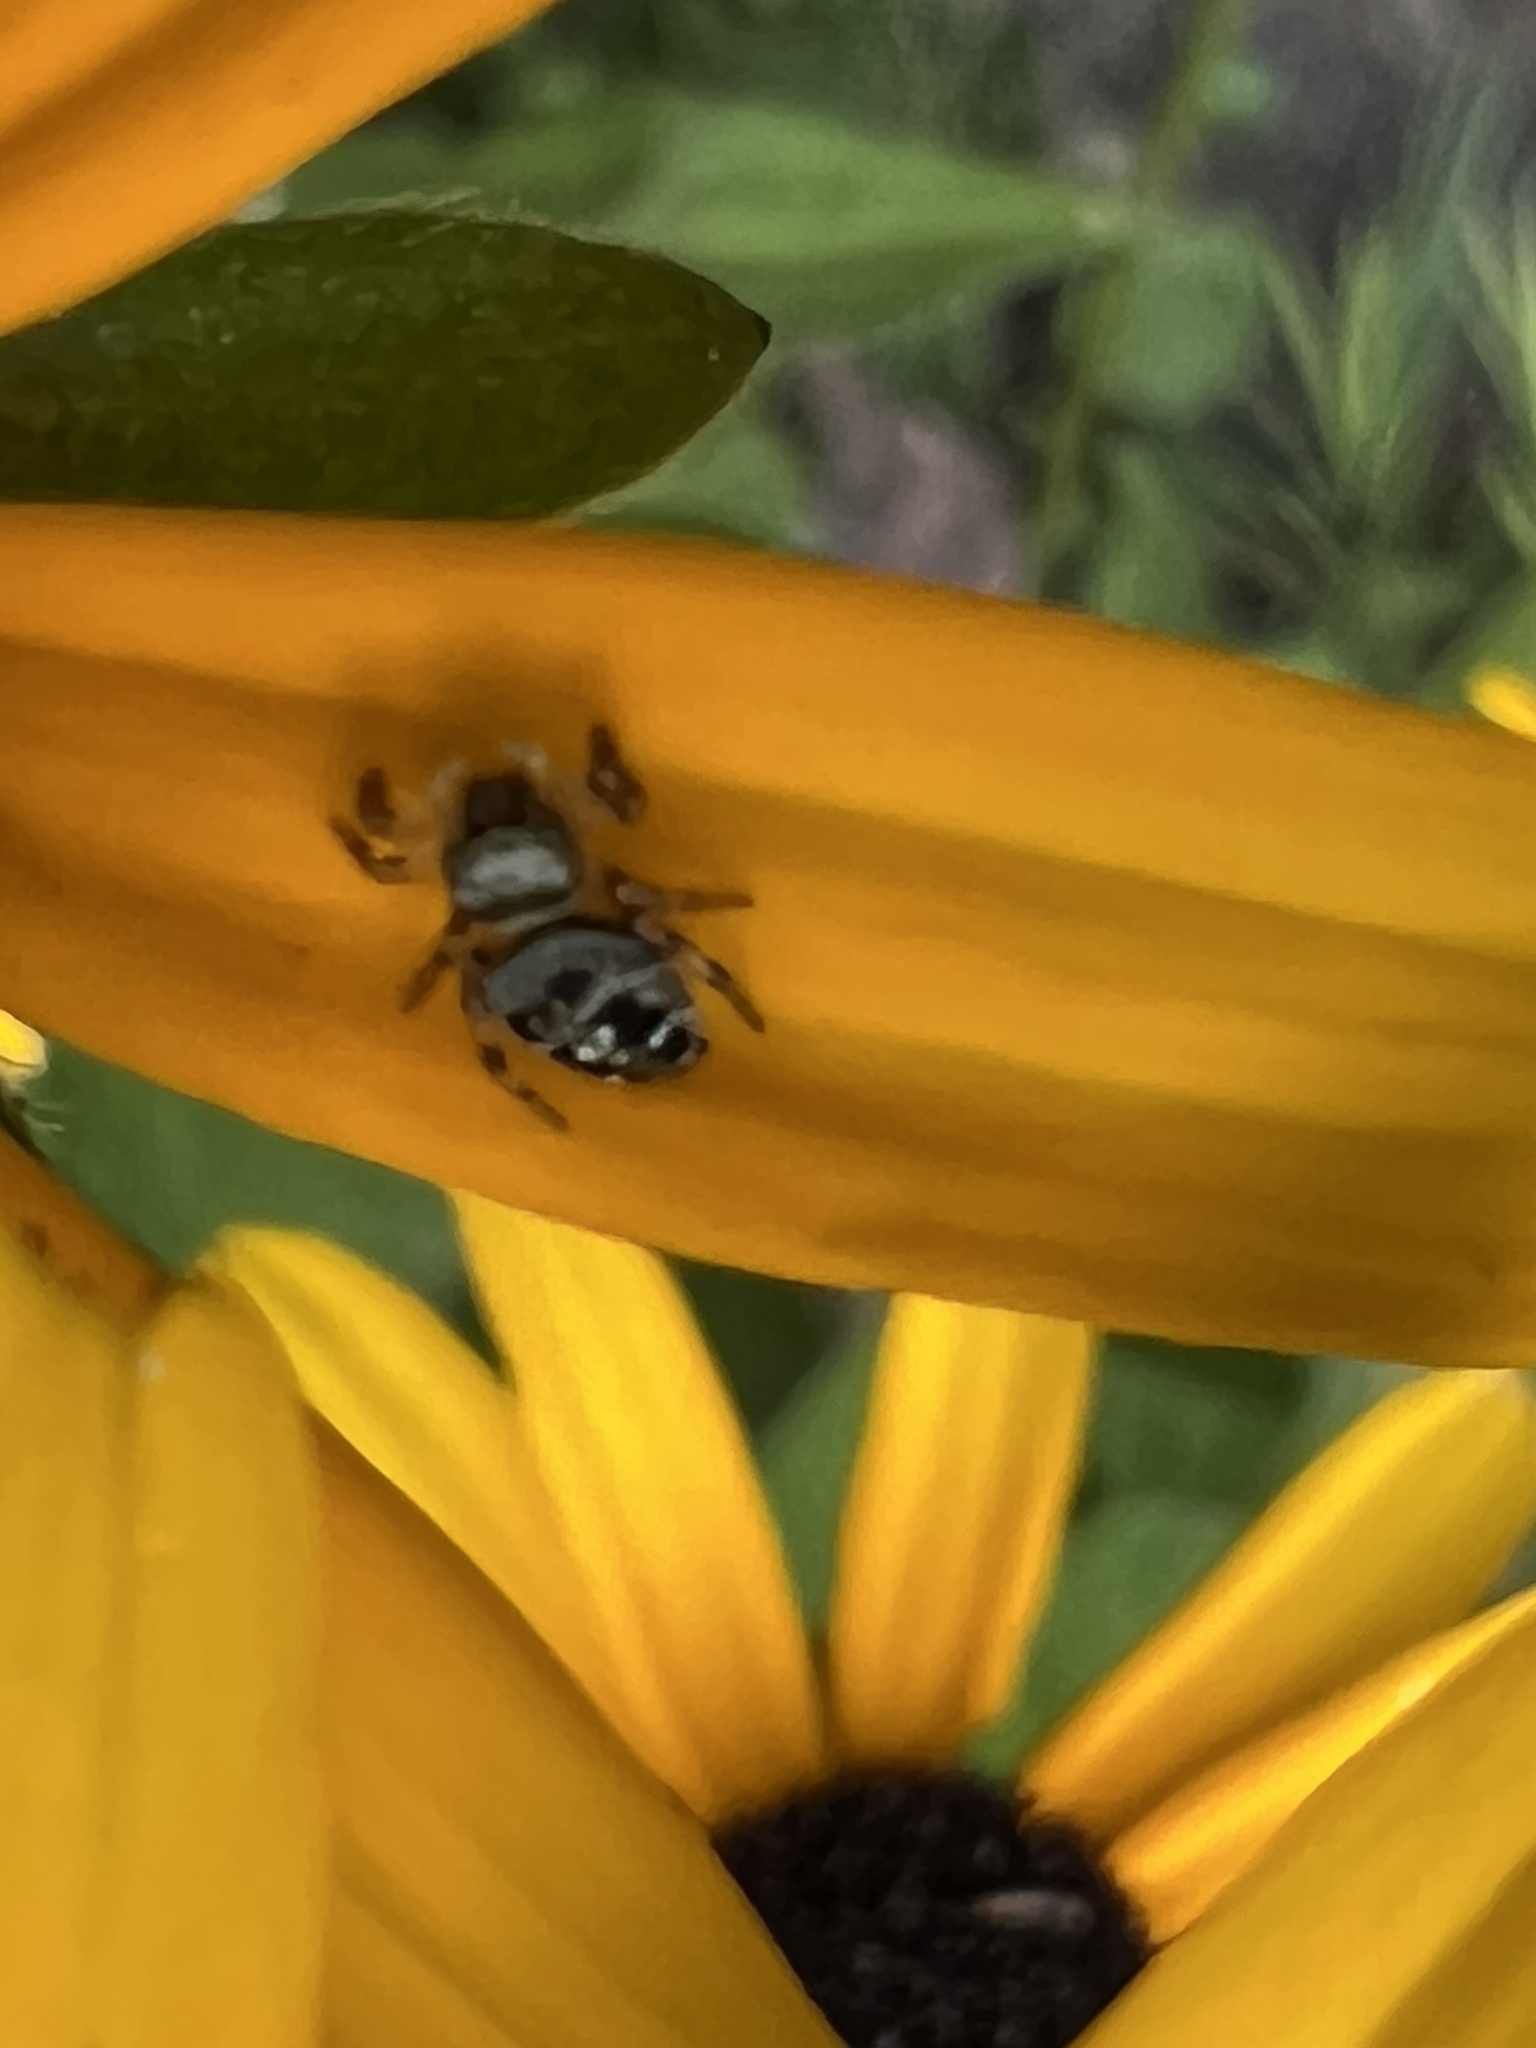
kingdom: Animalia
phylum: Arthropoda
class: Arachnida
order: Araneae
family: Salticidae
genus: Phidippus
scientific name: Phidippus princeps
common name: Grayish jumping spider
